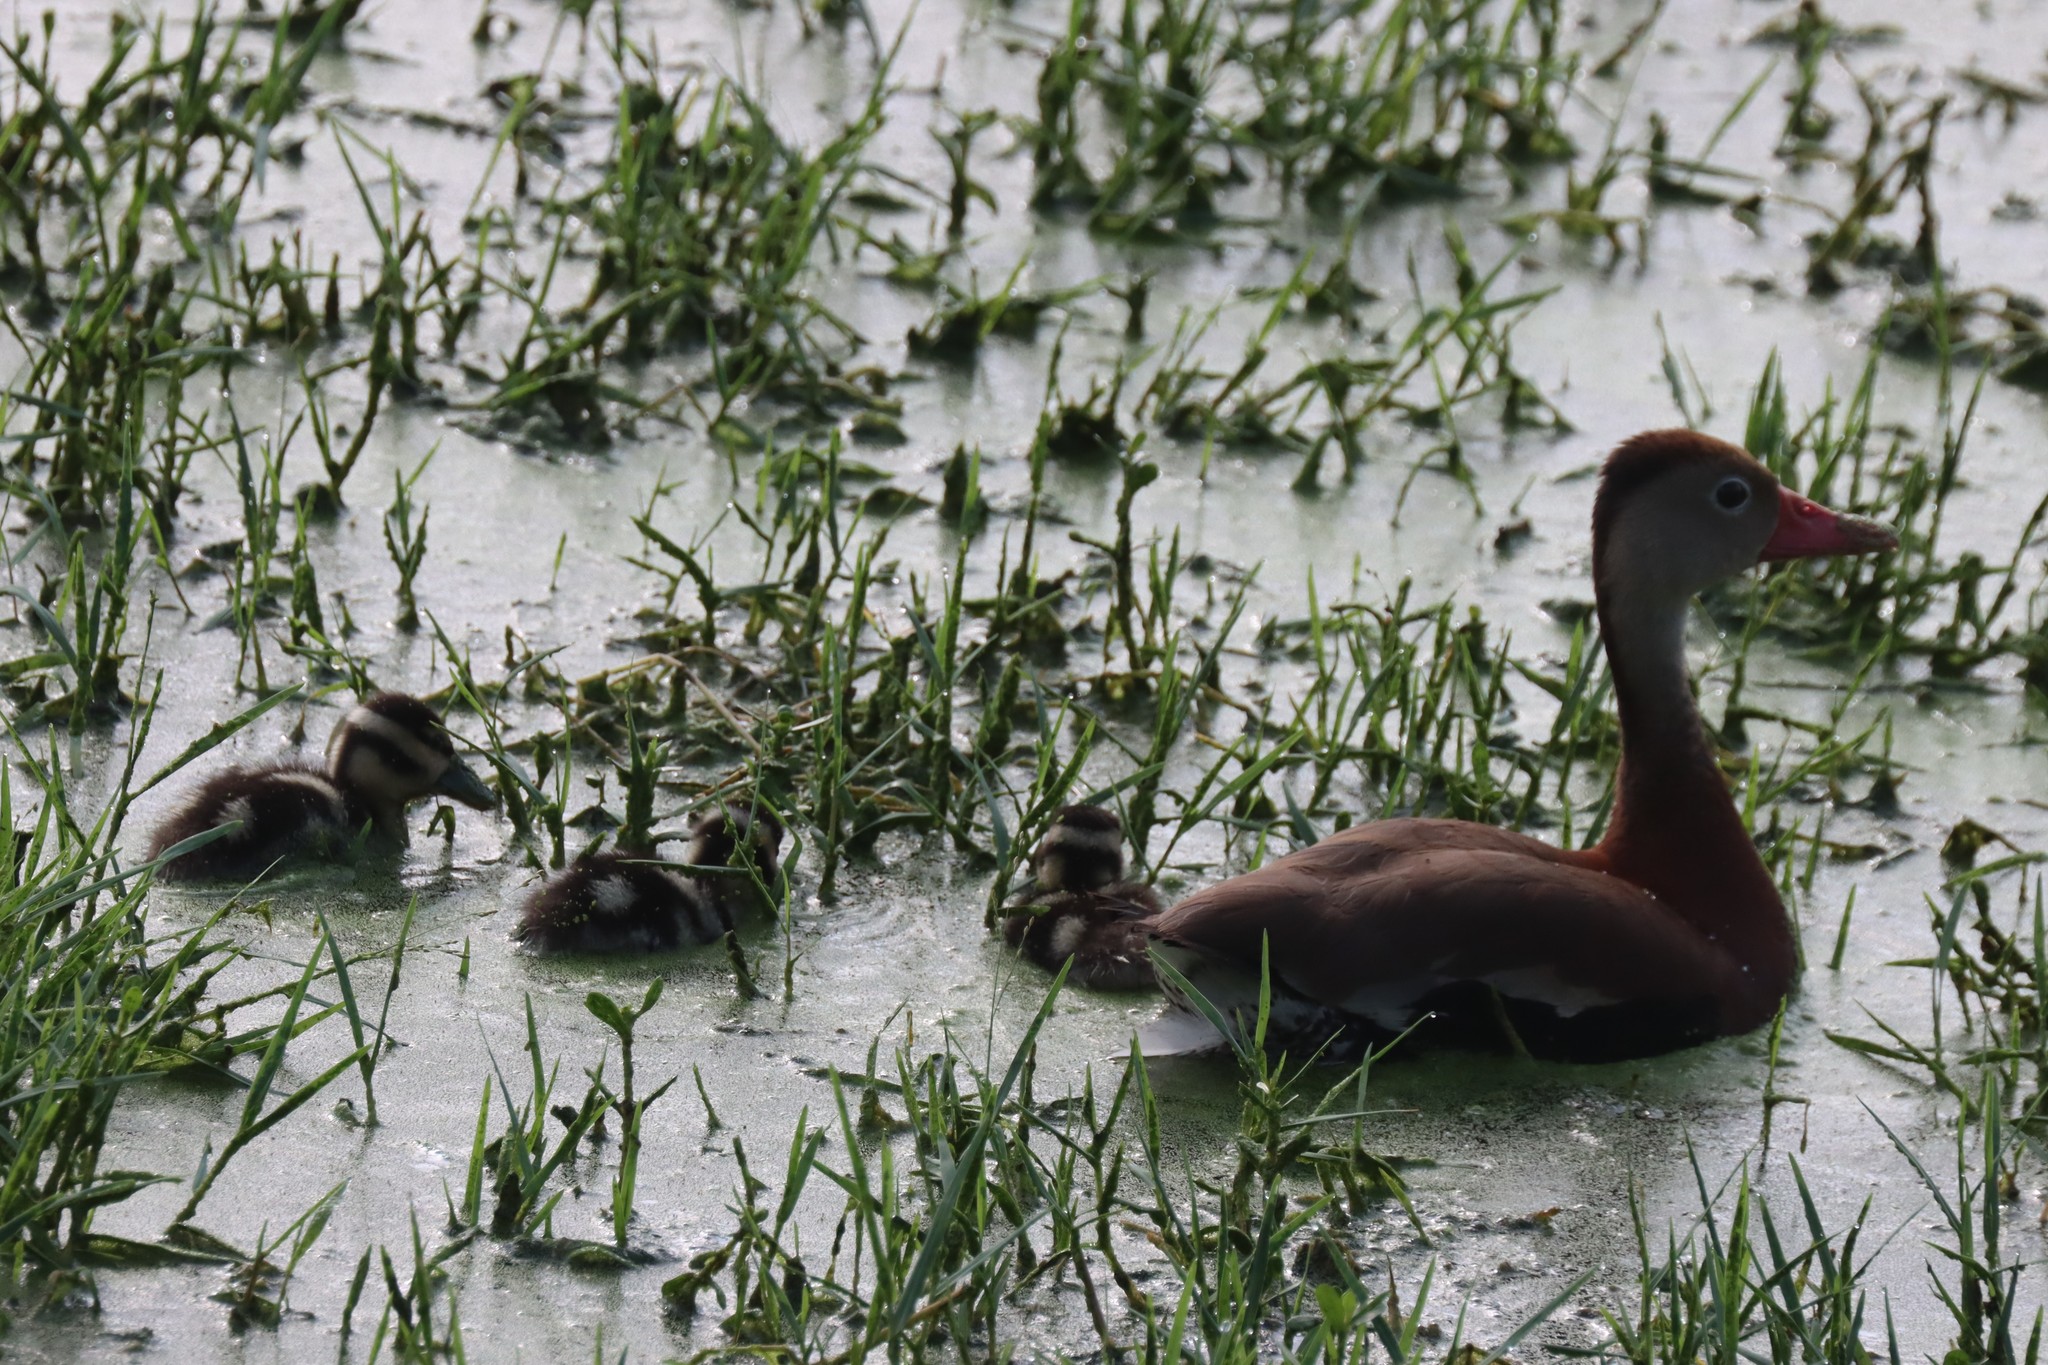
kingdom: Animalia
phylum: Chordata
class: Aves
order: Anseriformes
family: Anatidae
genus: Dendrocygna
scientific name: Dendrocygna autumnalis
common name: Black-bellied whistling duck
